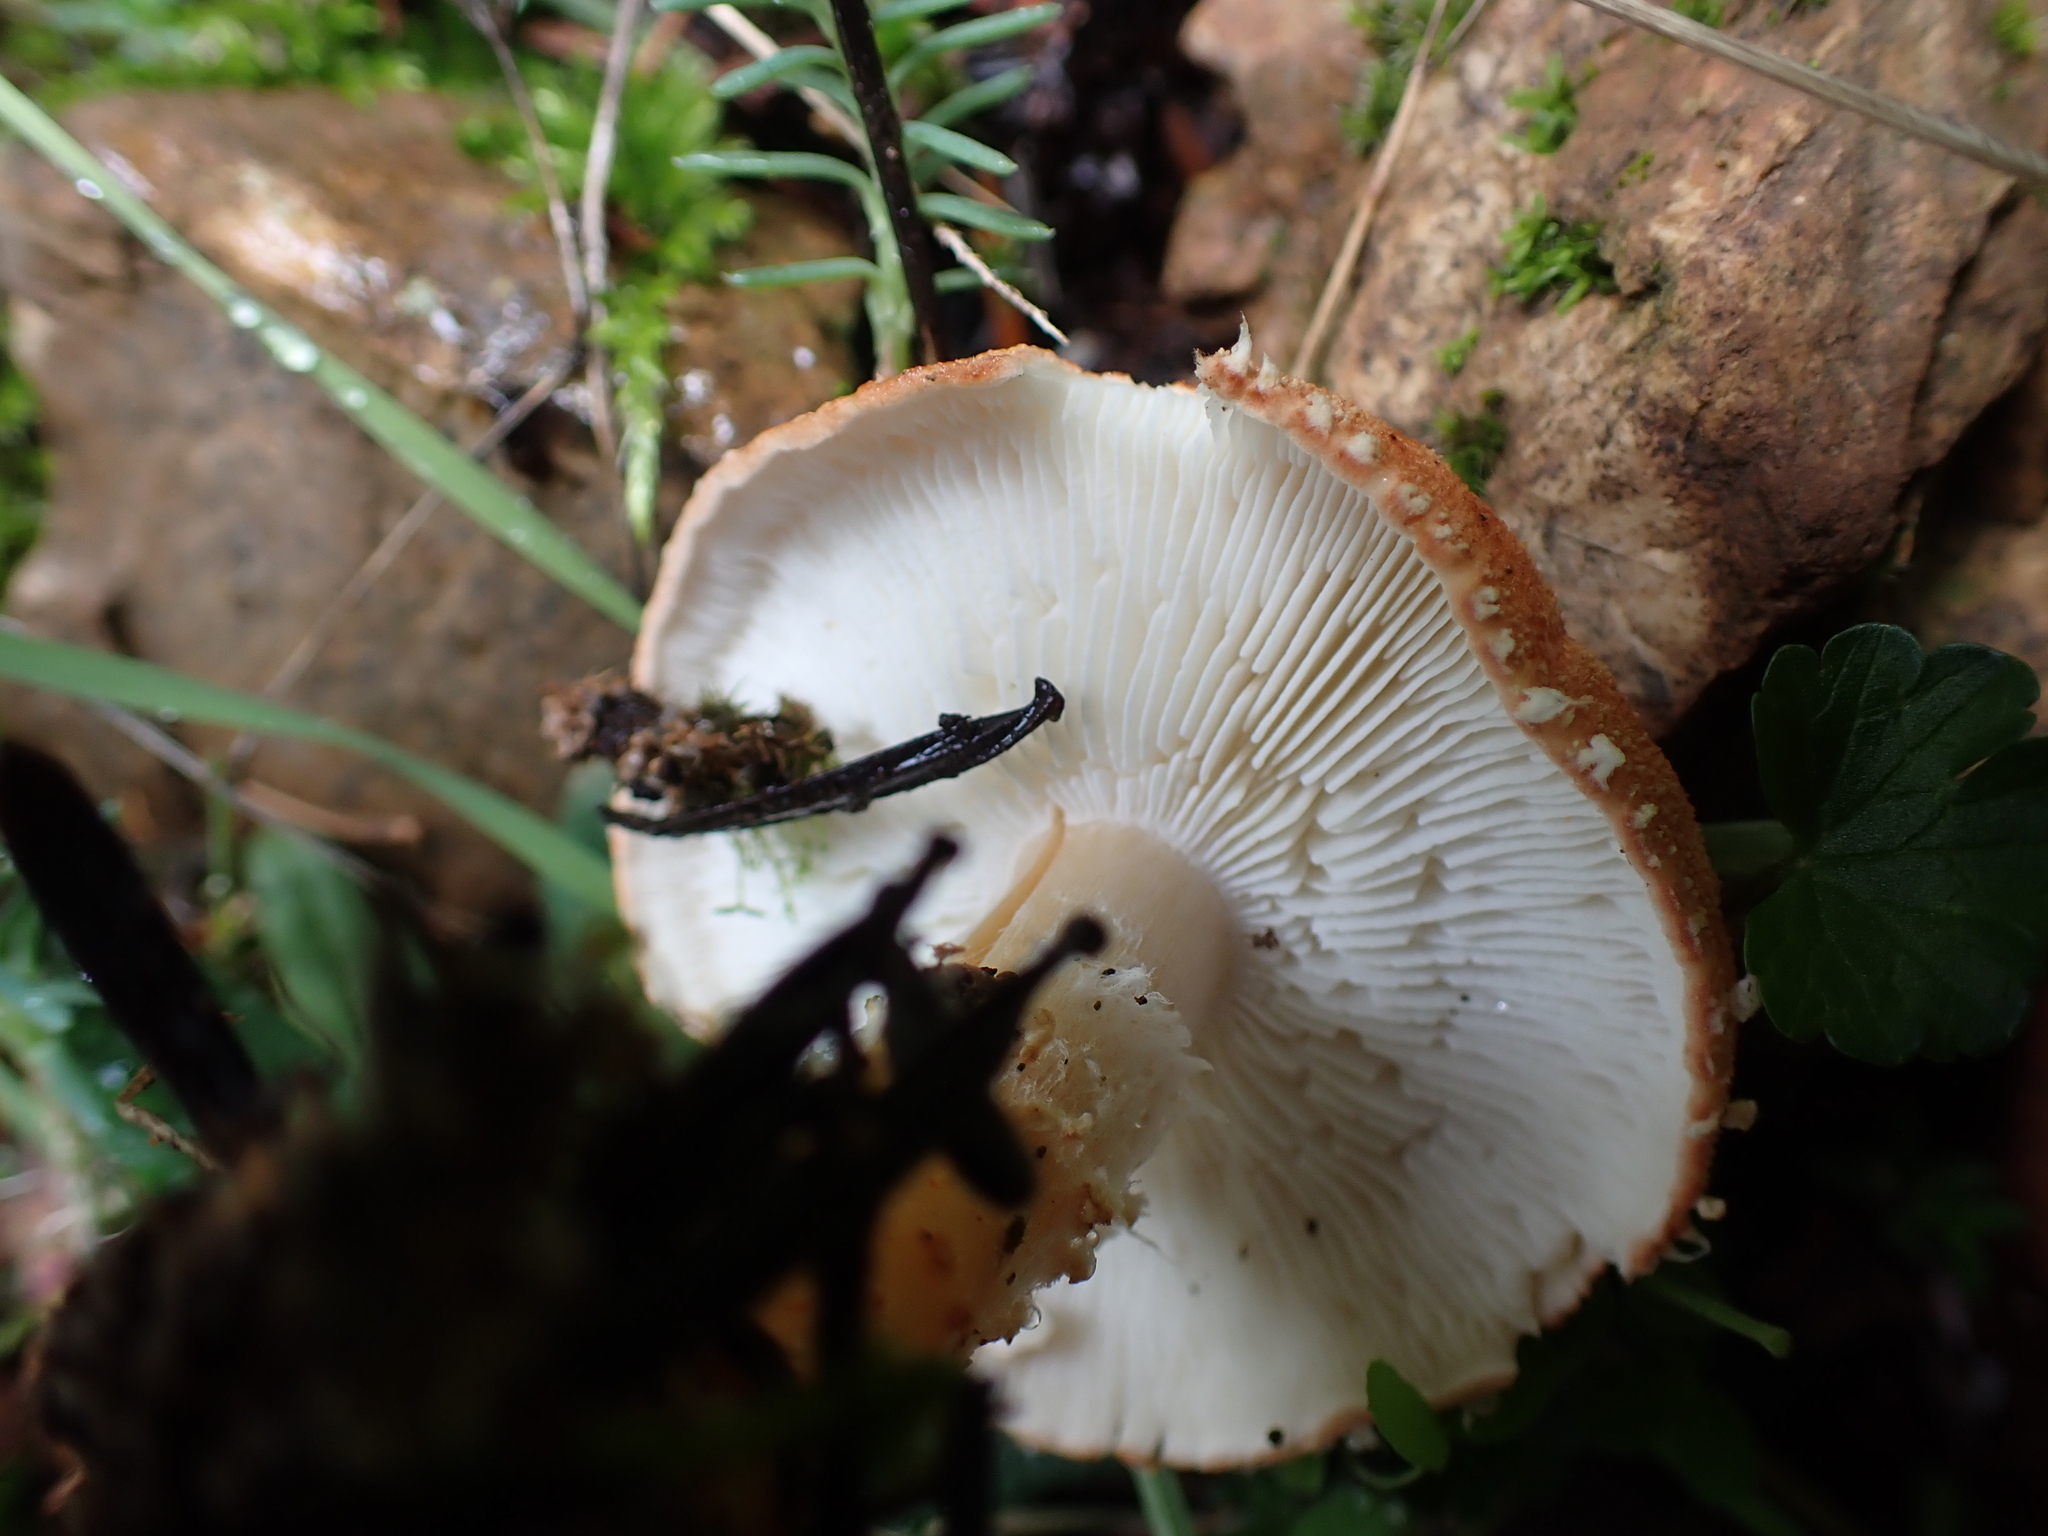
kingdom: Fungi
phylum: Basidiomycota
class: Agaricomycetes
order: Agaricales
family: Agaricaceae
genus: Cystodermella
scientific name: Cystodermella cinnabarina
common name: Cinnabar powdercap
